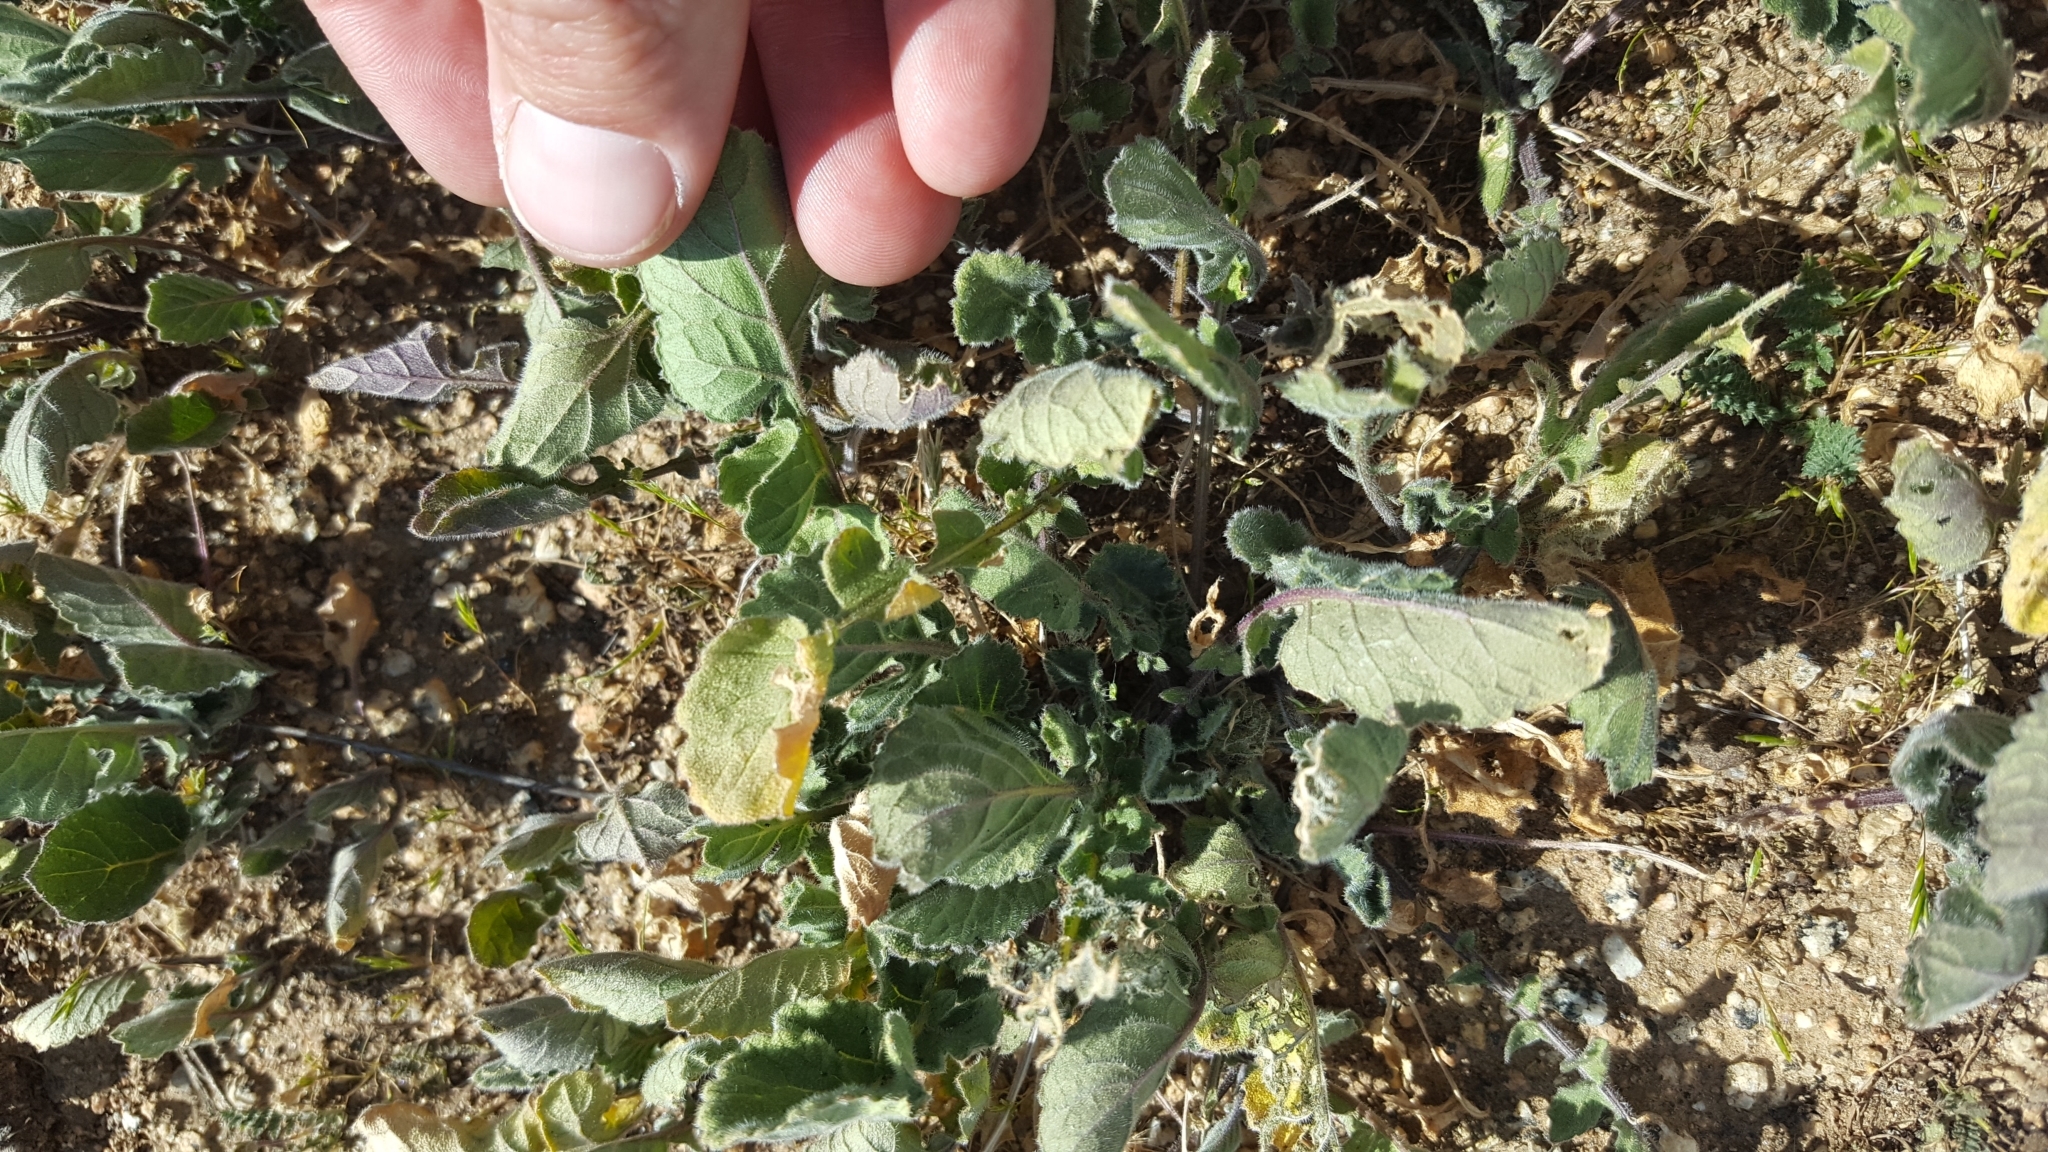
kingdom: Plantae
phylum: Tracheophyta
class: Magnoliopsida
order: Brassicales
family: Brassicaceae
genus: Hirschfeldia
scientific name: Hirschfeldia incana
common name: Hoary mustard
